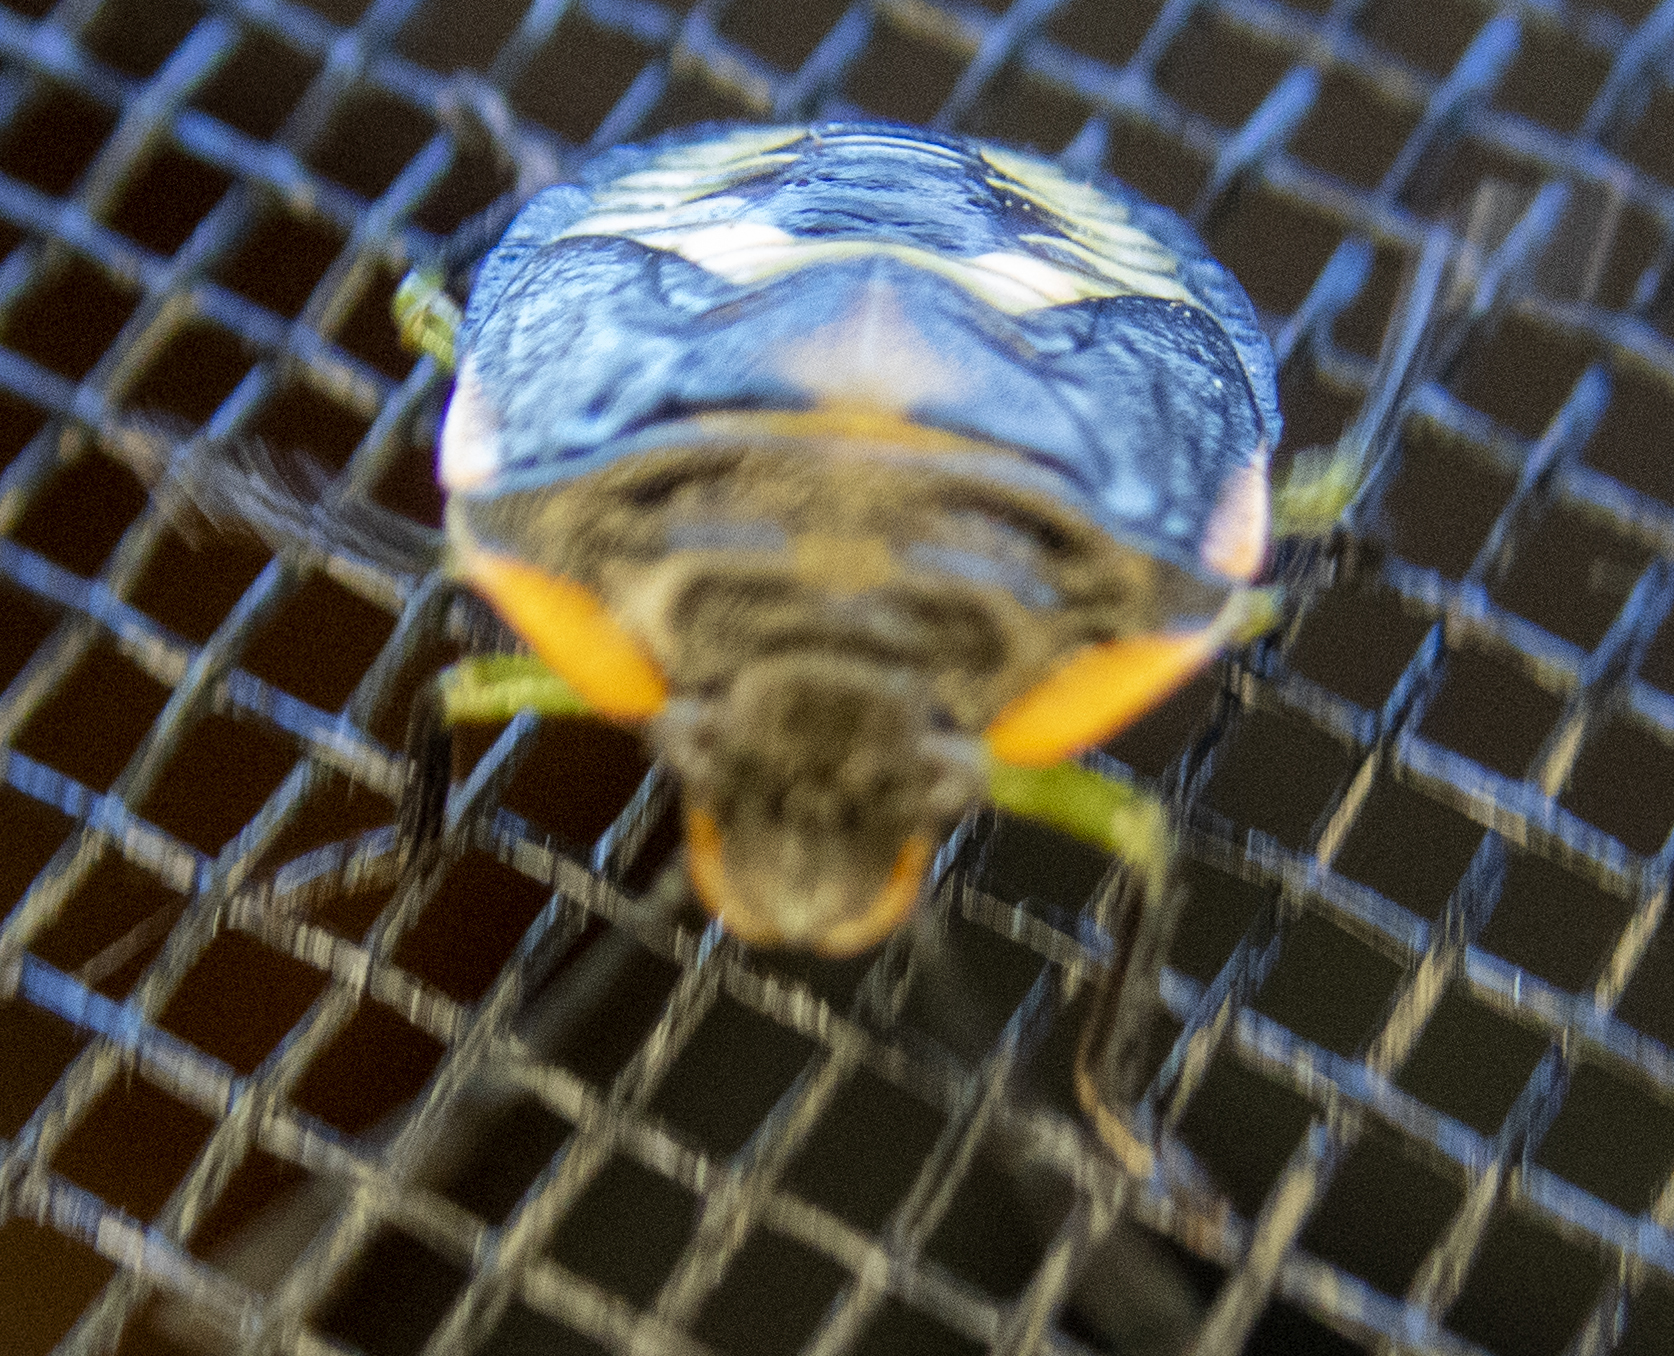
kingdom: Animalia
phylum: Arthropoda
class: Insecta
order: Hemiptera
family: Pentatomidae
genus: Chinavia
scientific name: Chinavia hilaris
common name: Green stink bug
